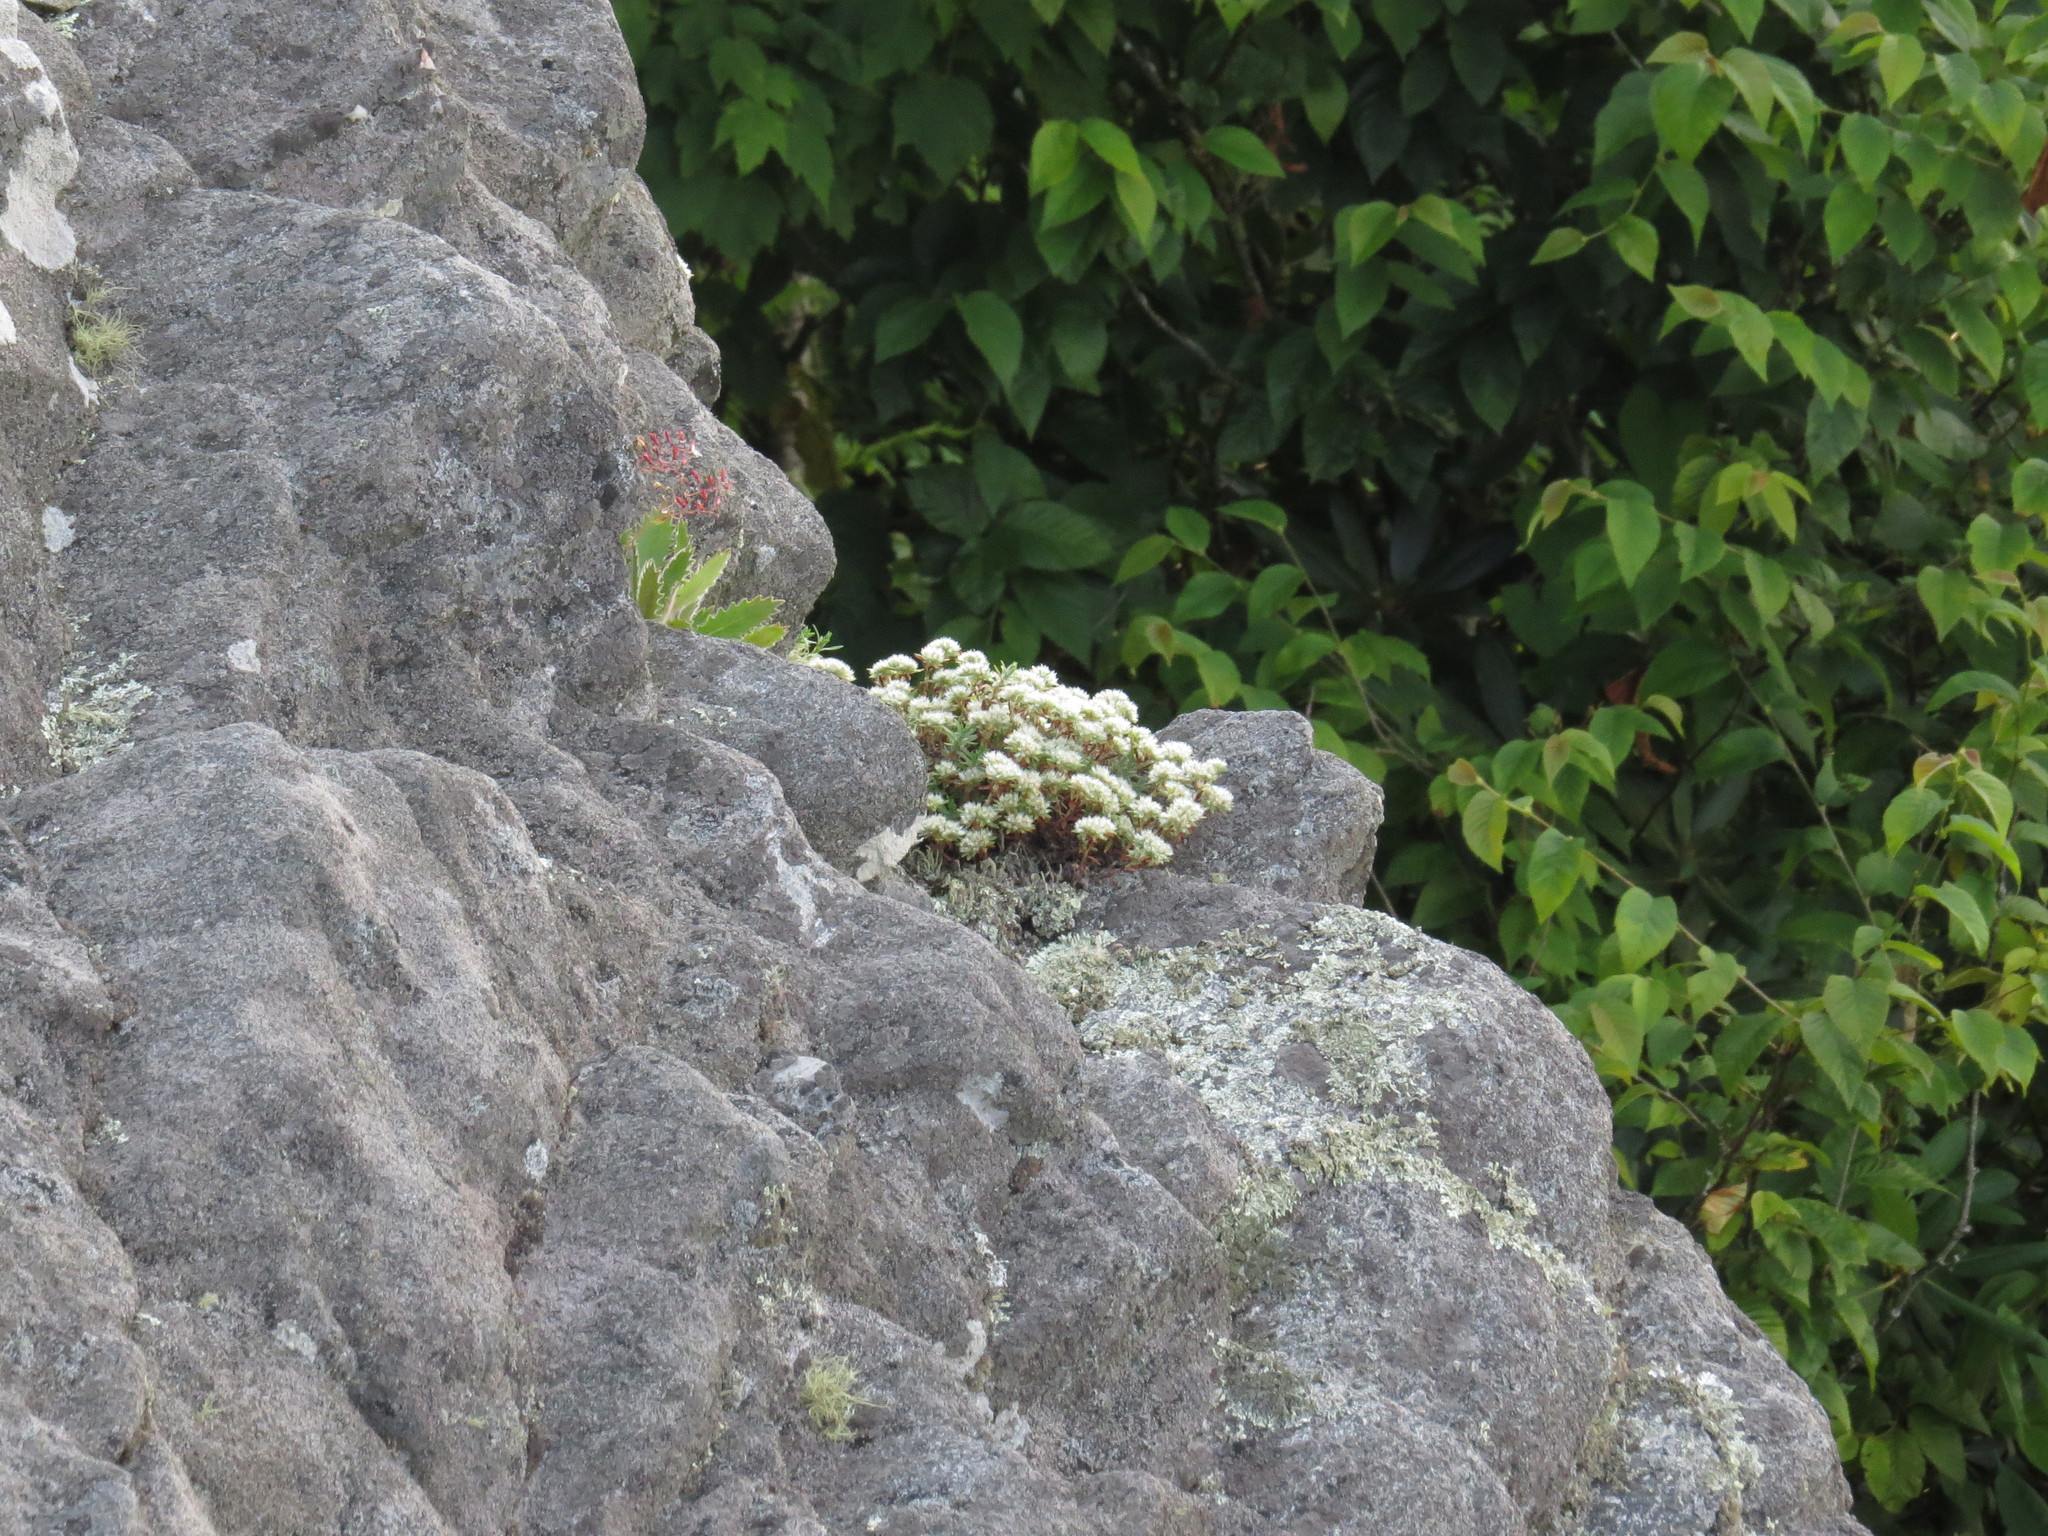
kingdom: Plantae
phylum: Tracheophyta
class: Magnoliopsida
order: Caryophyllales
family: Caryophyllaceae
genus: Paronychia
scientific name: Paronychia argyrocoma
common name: Silverling
